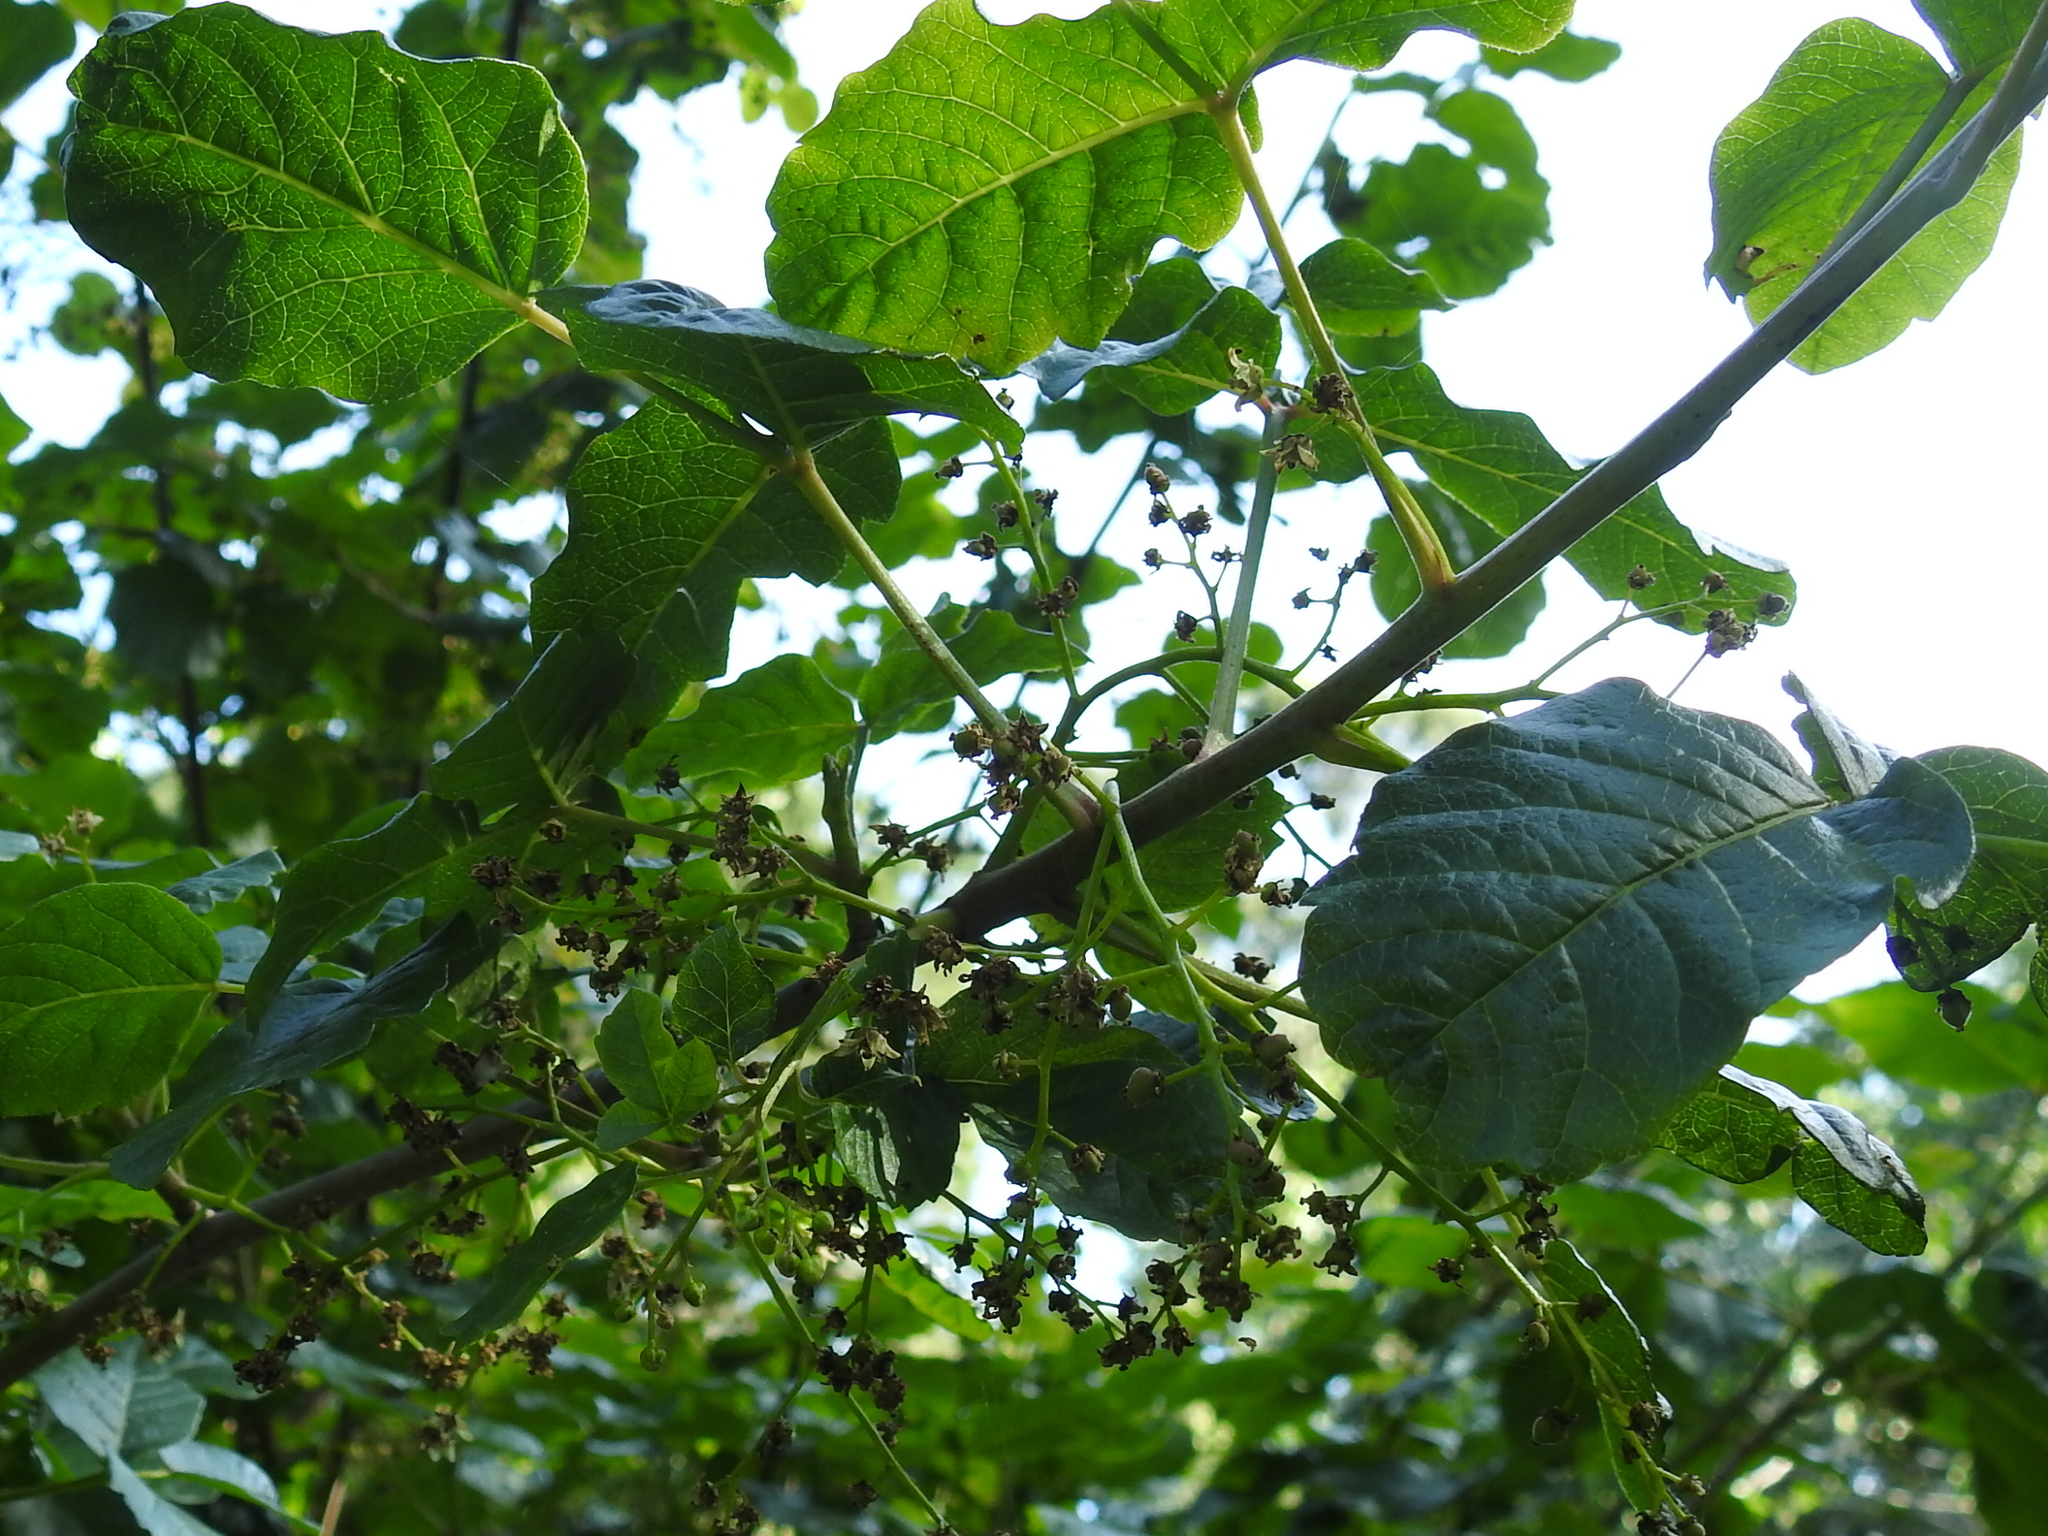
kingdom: Plantae
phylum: Tracheophyta
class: Magnoliopsida
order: Sapindales
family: Anacardiaceae
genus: Toxicodendron
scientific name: Toxicodendron diversilobum
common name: Pacific poison-oak
